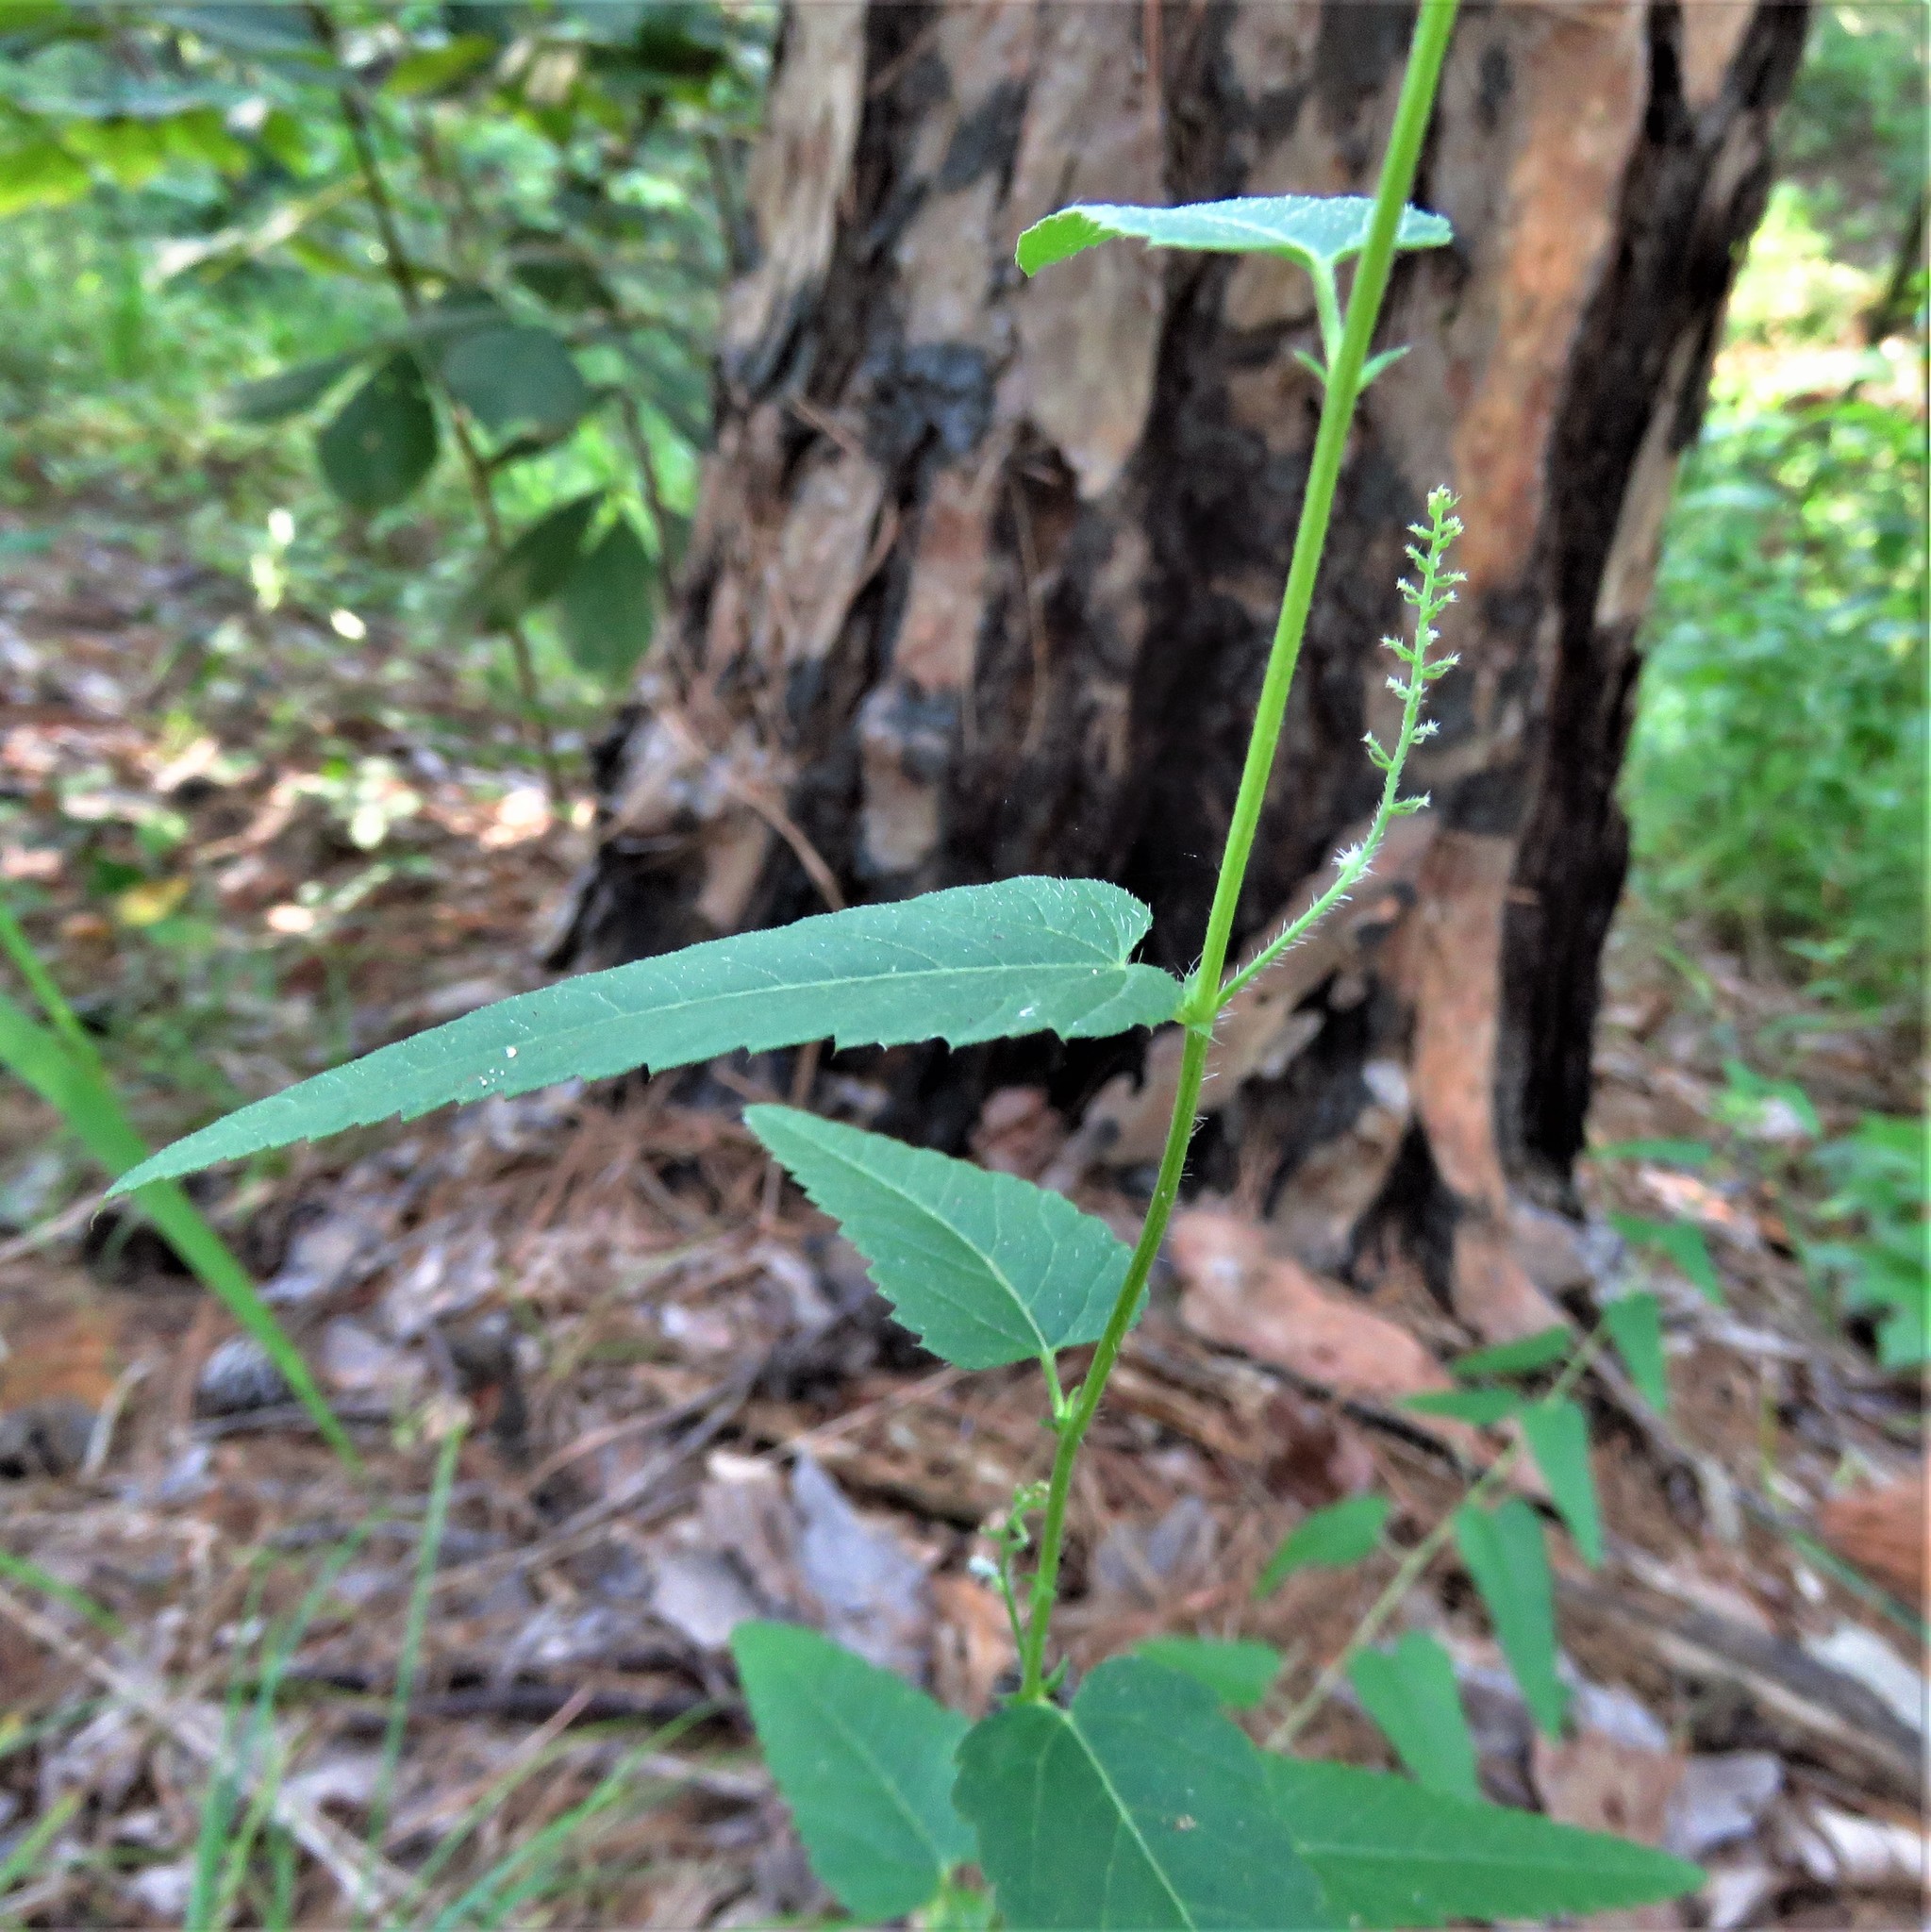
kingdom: Plantae
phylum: Tracheophyta
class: Magnoliopsida
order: Malpighiales
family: Euphorbiaceae
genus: Tragia
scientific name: Tragia urticifolia
